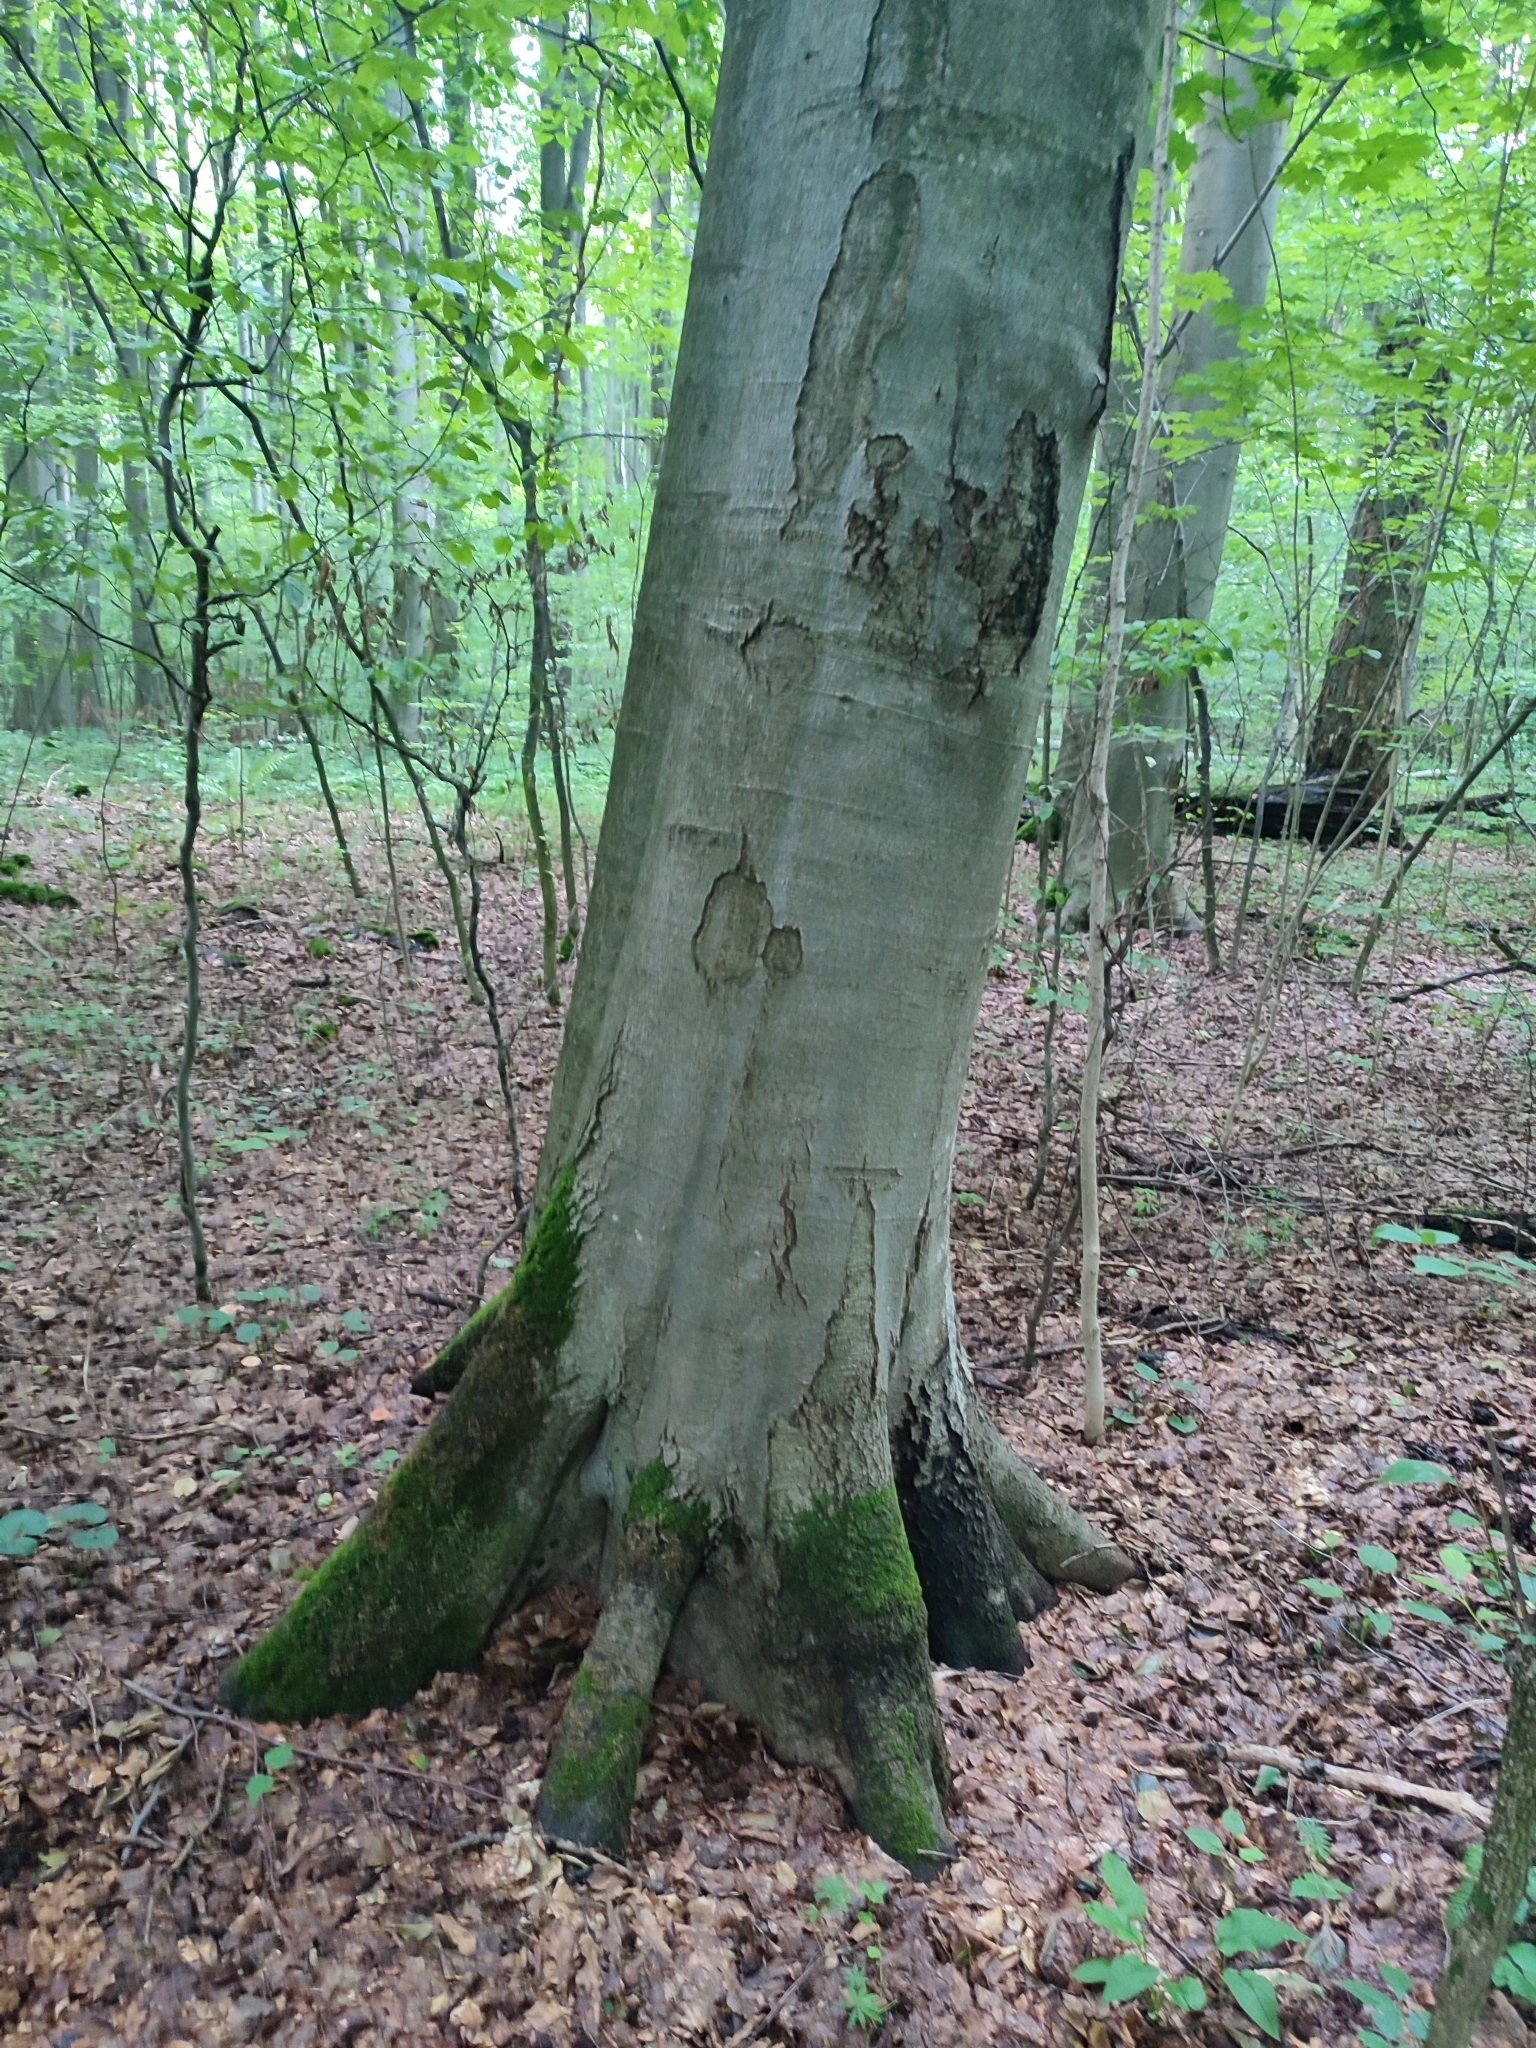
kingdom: Plantae
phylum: Tracheophyta
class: Magnoliopsida
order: Fagales
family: Fagaceae
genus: Fagus
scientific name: Fagus sylvatica
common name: Beech
